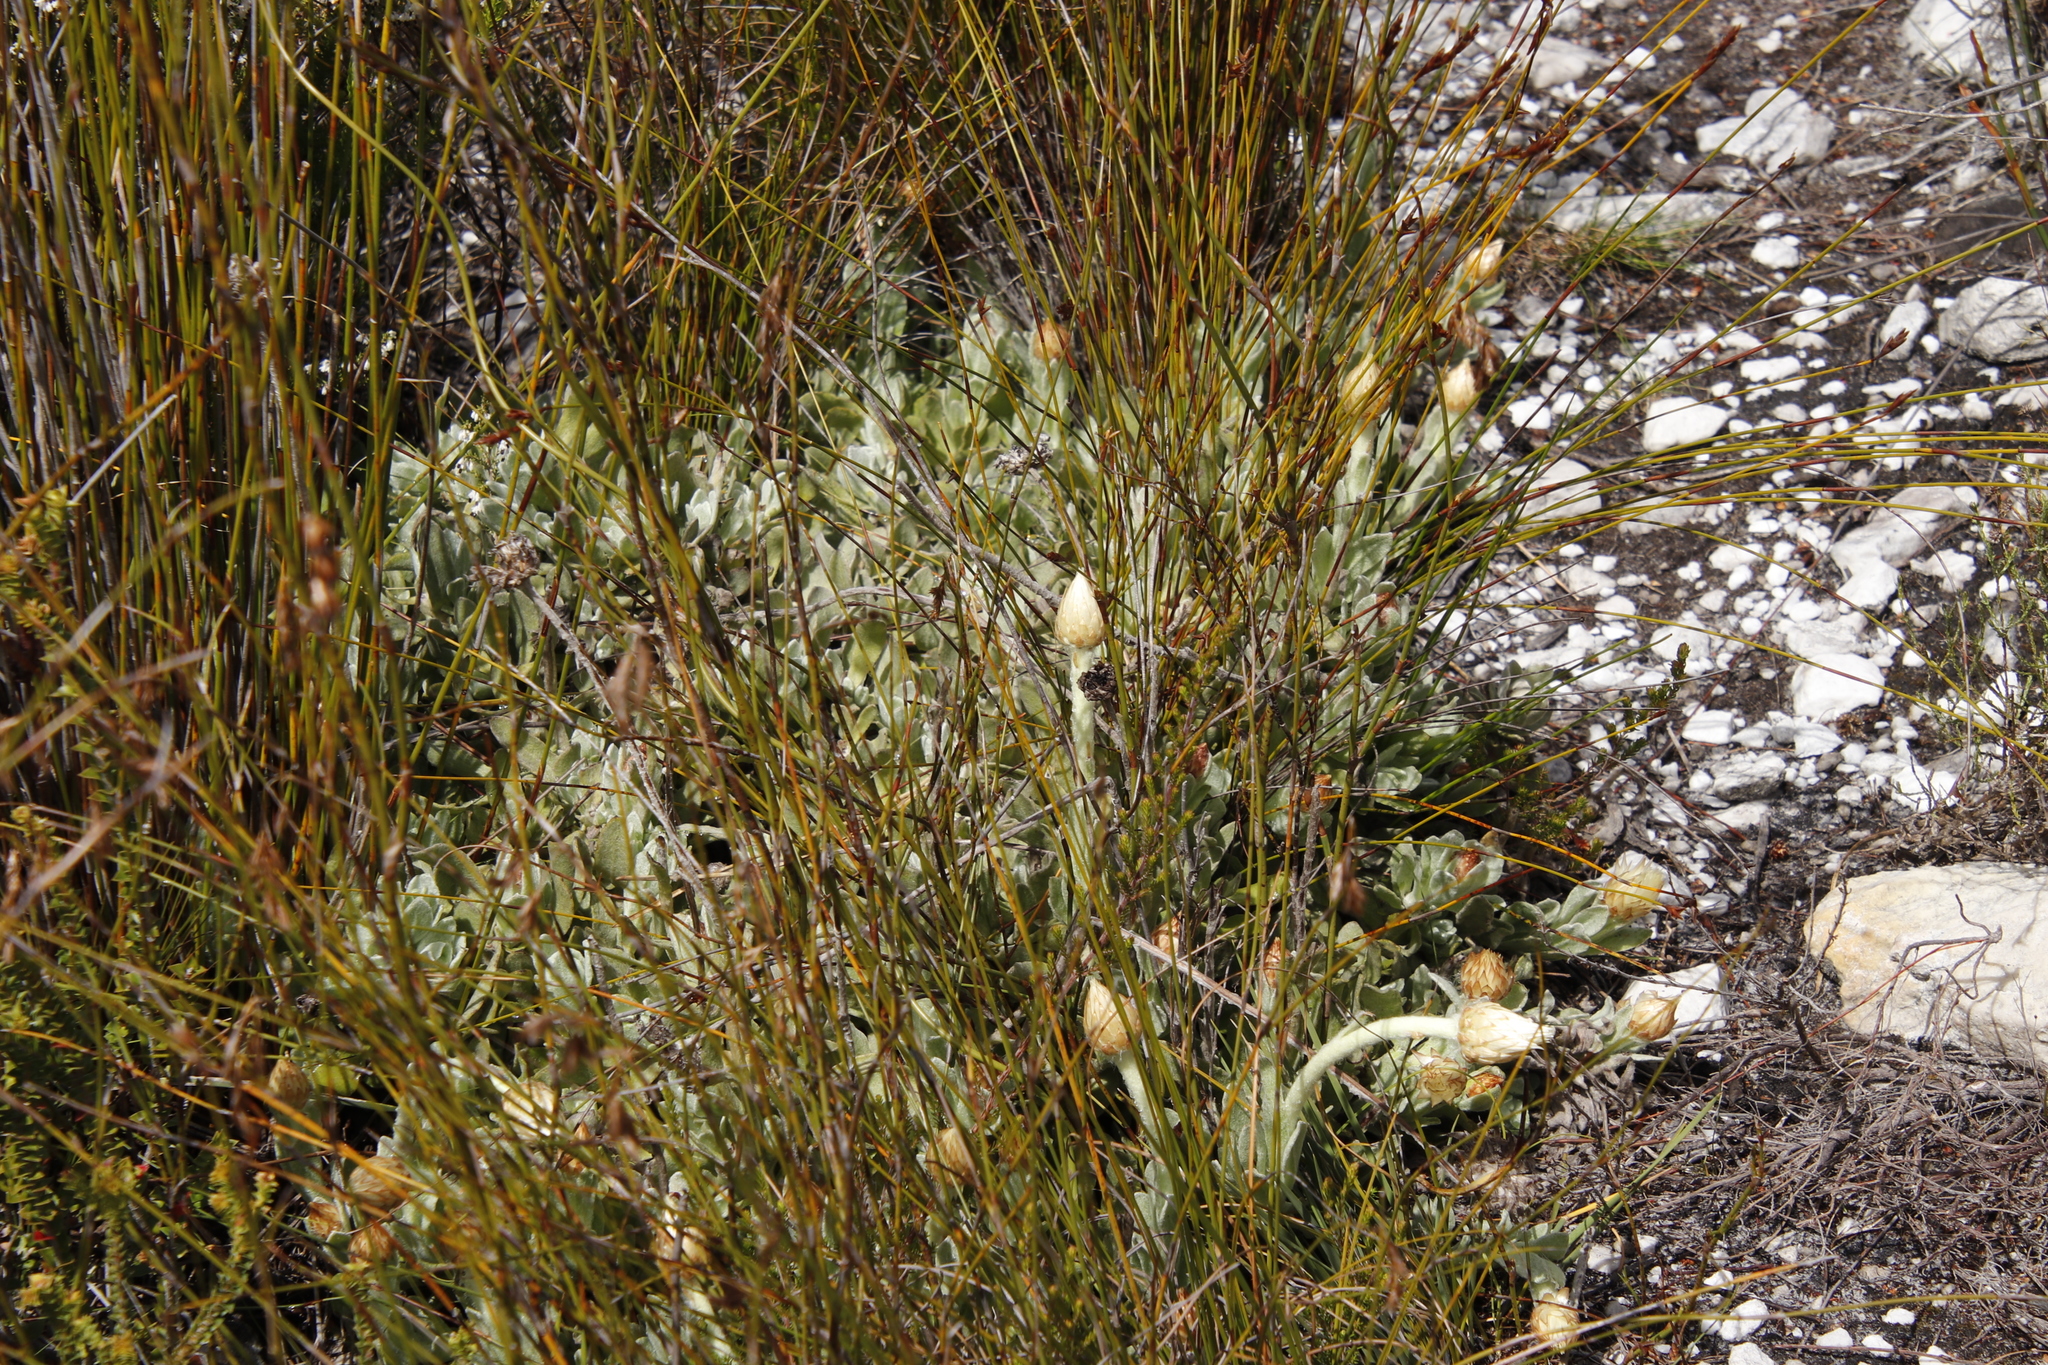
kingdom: Plantae
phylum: Tracheophyta
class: Magnoliopsida
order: Asterales
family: Asteraceae
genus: Syncarpha
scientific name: Syncarpha speciosissima
